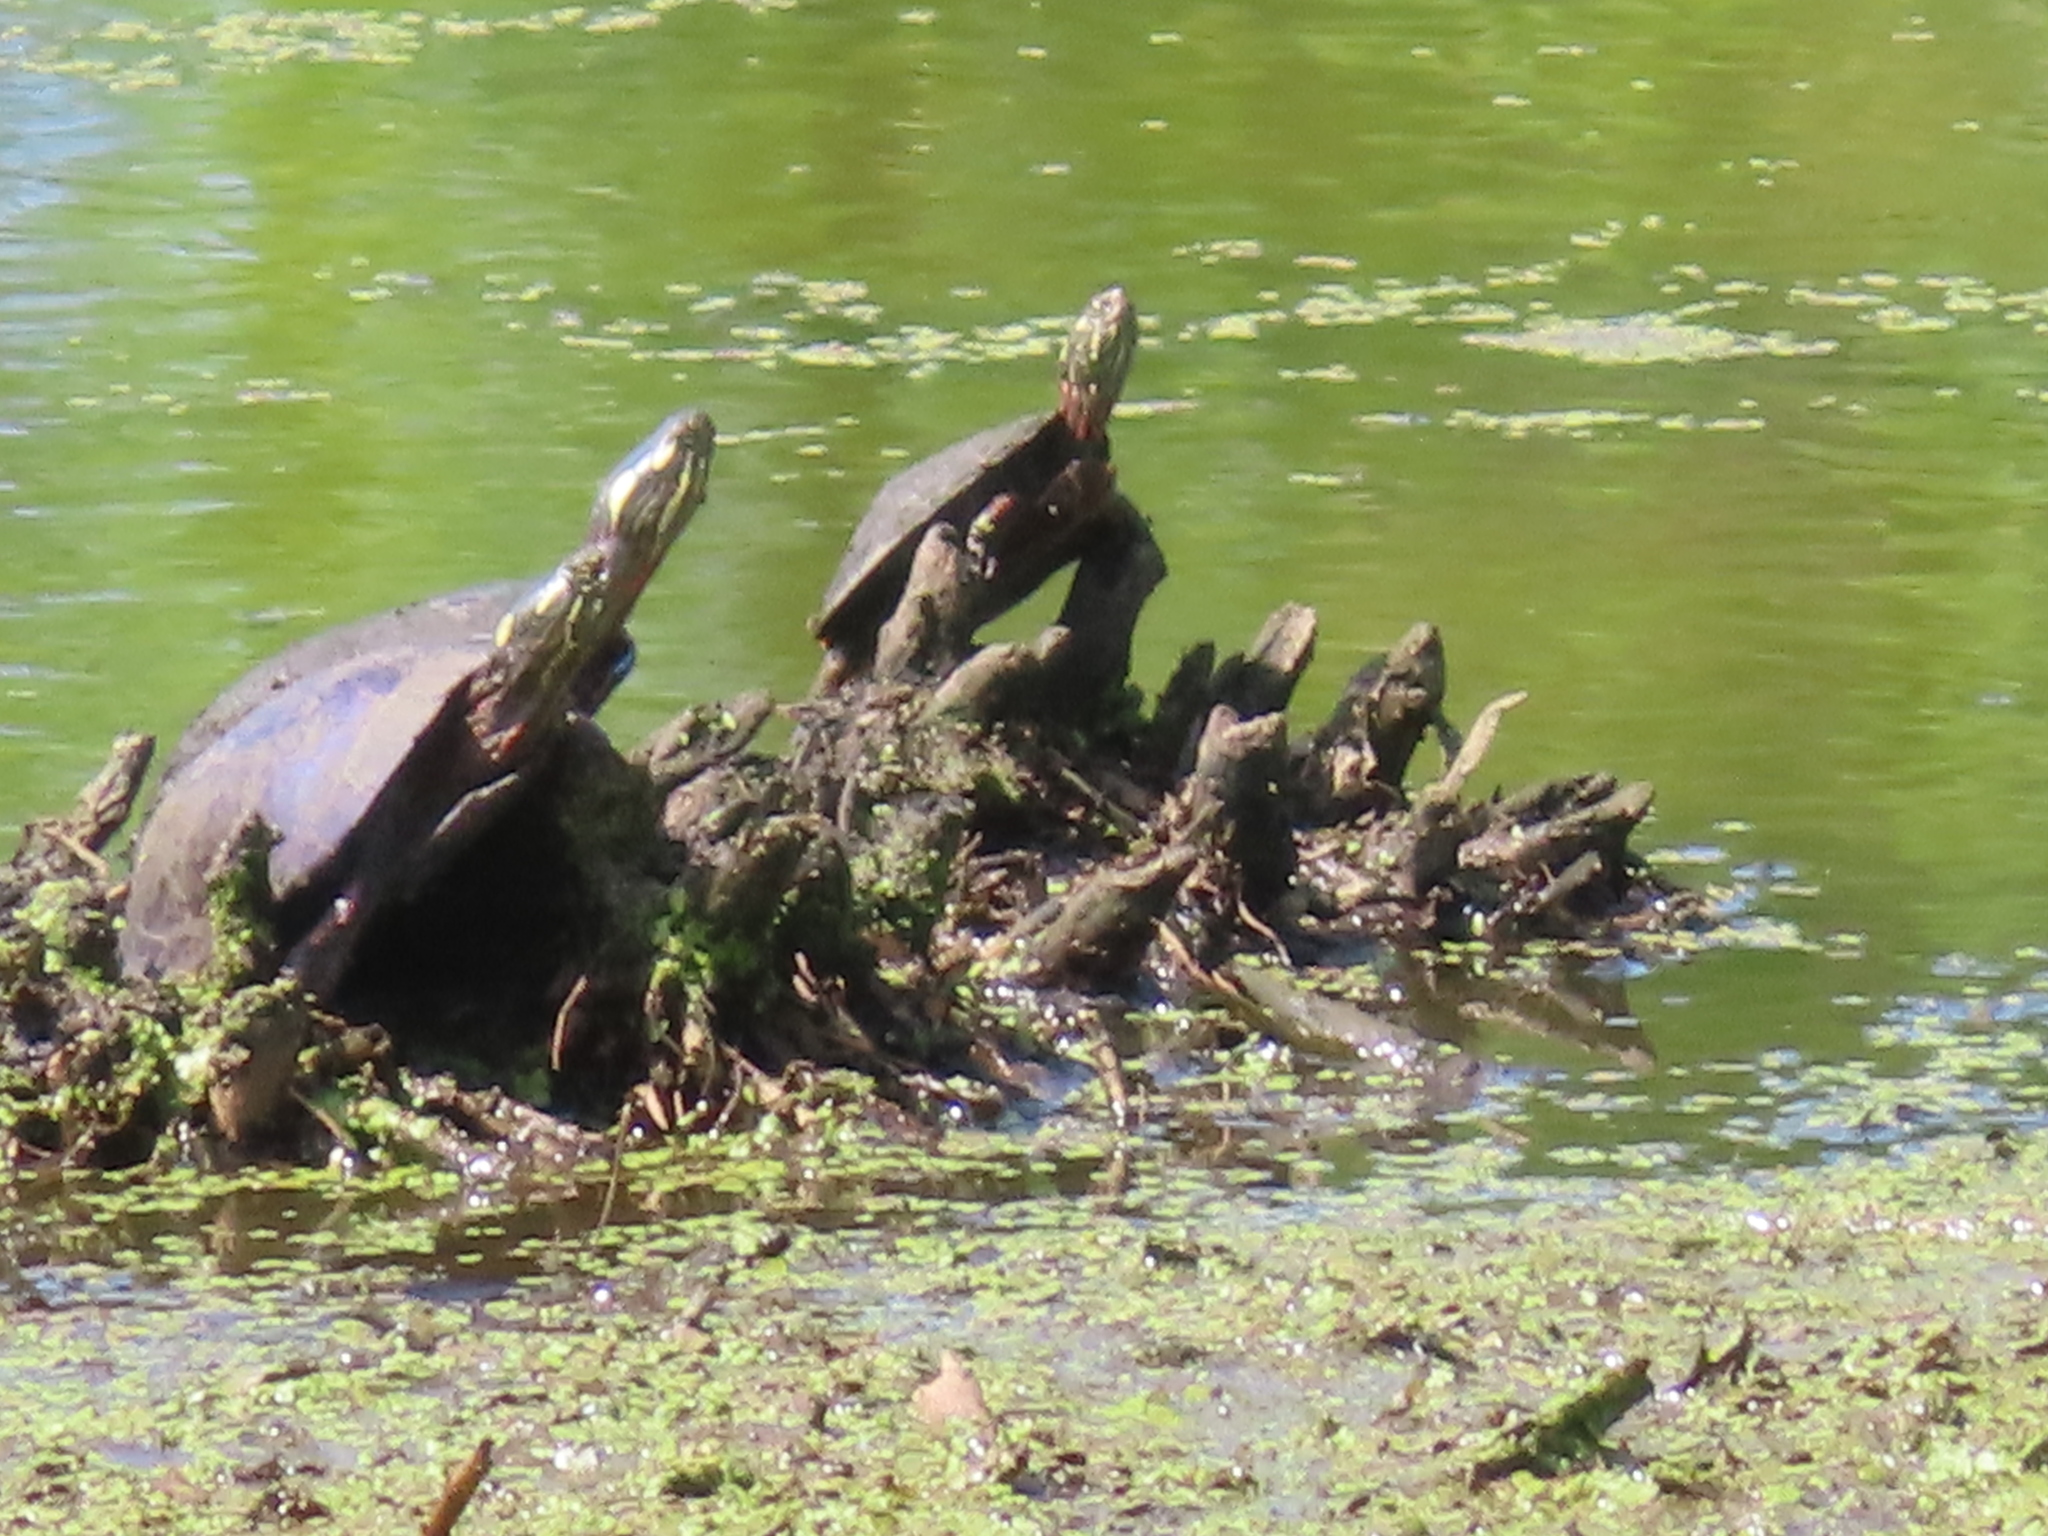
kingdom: Animalia
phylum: Chordata
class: Testudines
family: Emydidae
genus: Chrysemys
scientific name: Chrysemys picta
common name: Painted turtle
